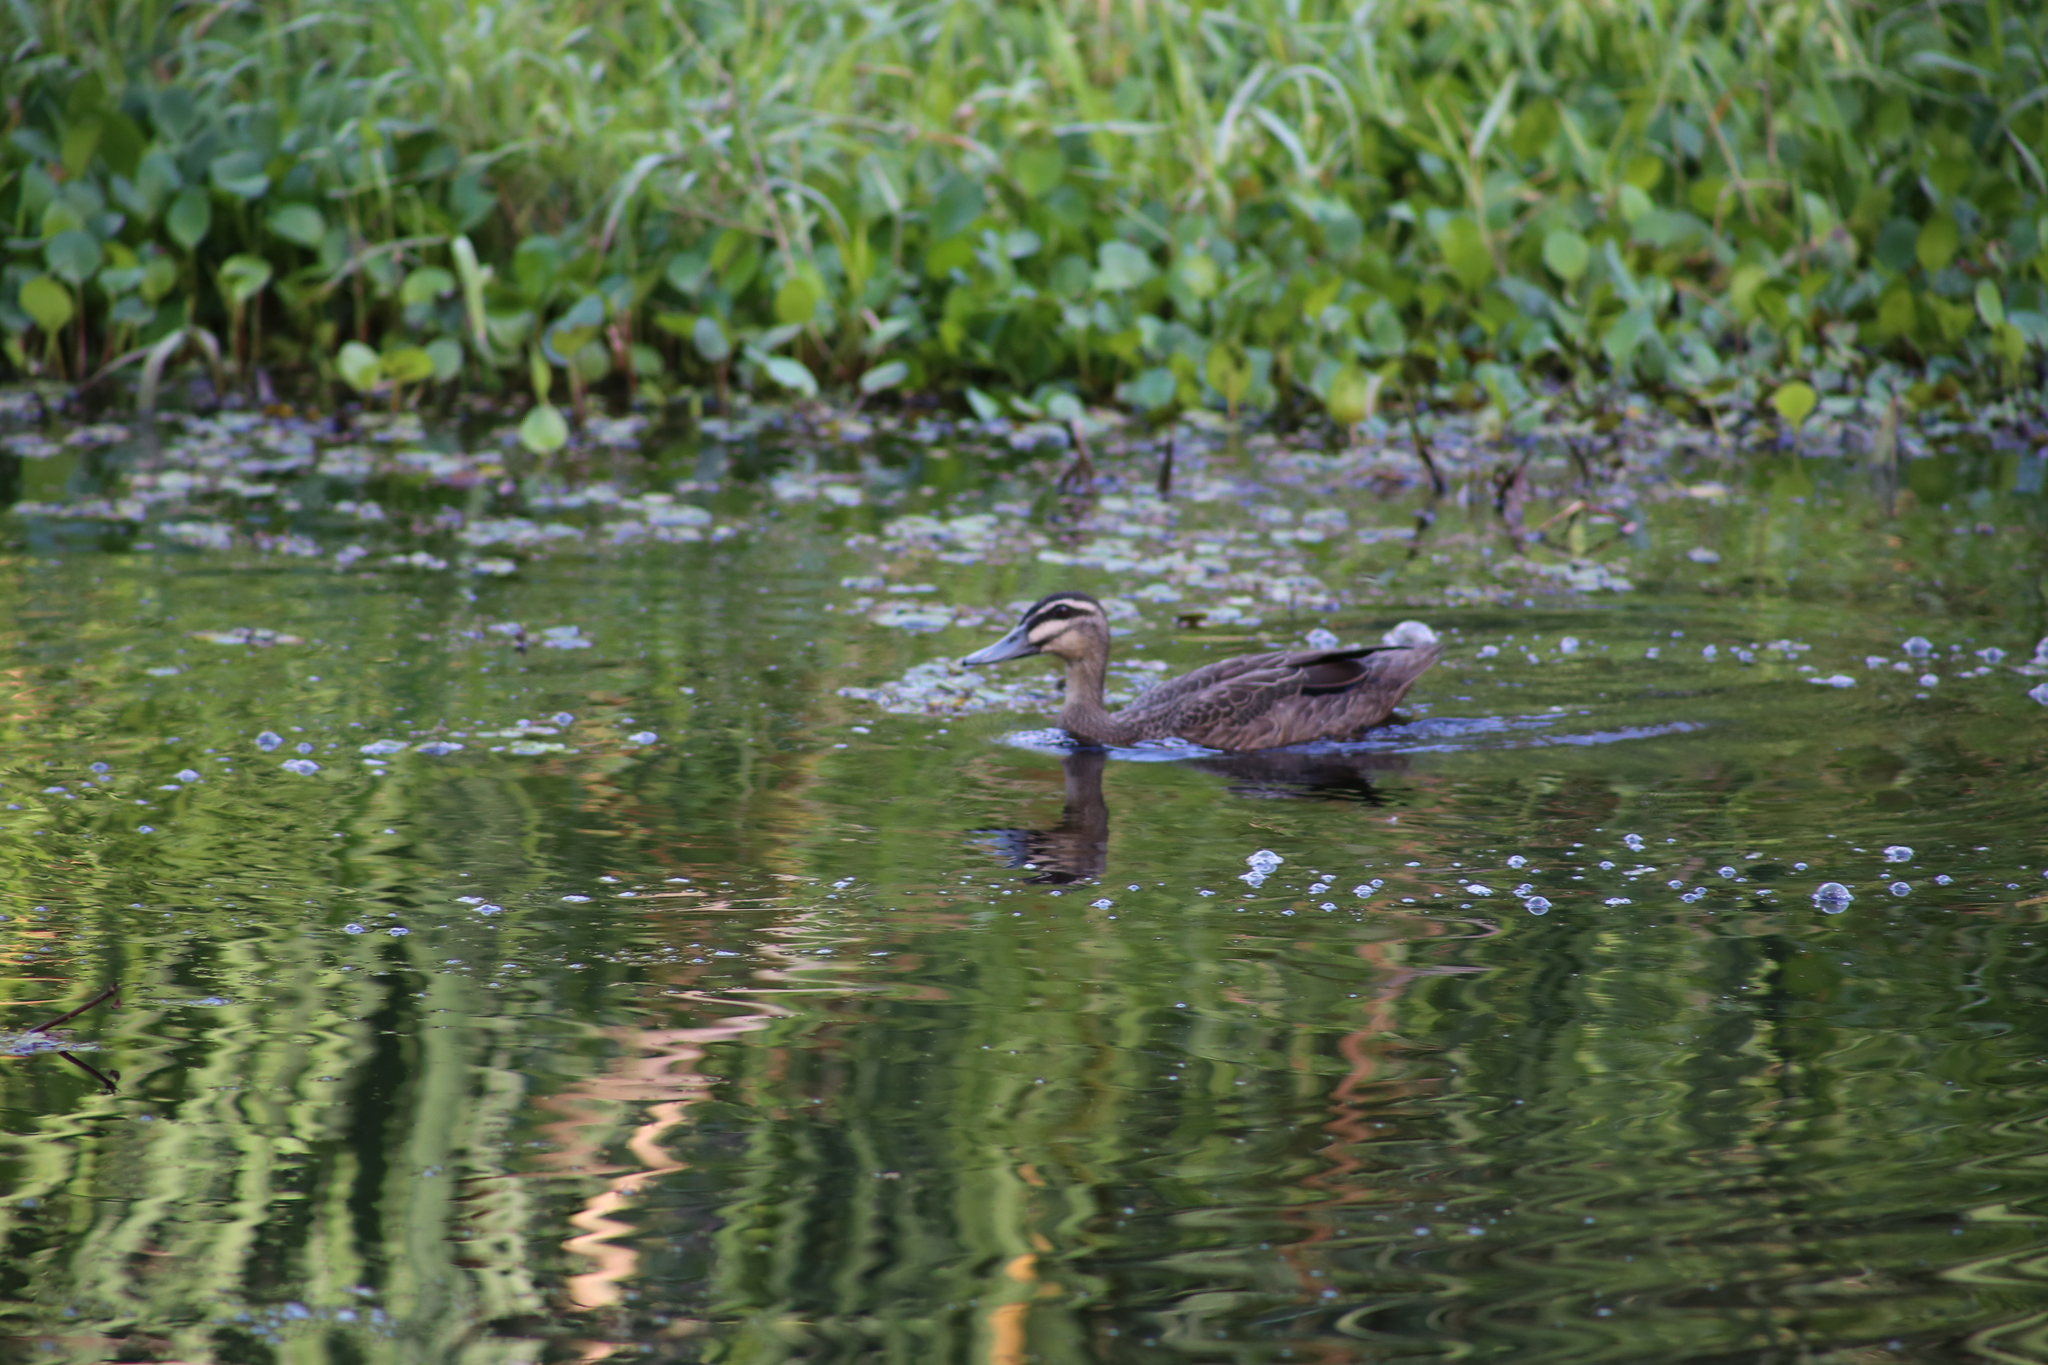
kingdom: Animalia
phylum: Chordata
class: Aves
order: Anseriformes
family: Anatidae
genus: Anas
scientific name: Anas superciliosa
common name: Pacific black duck
